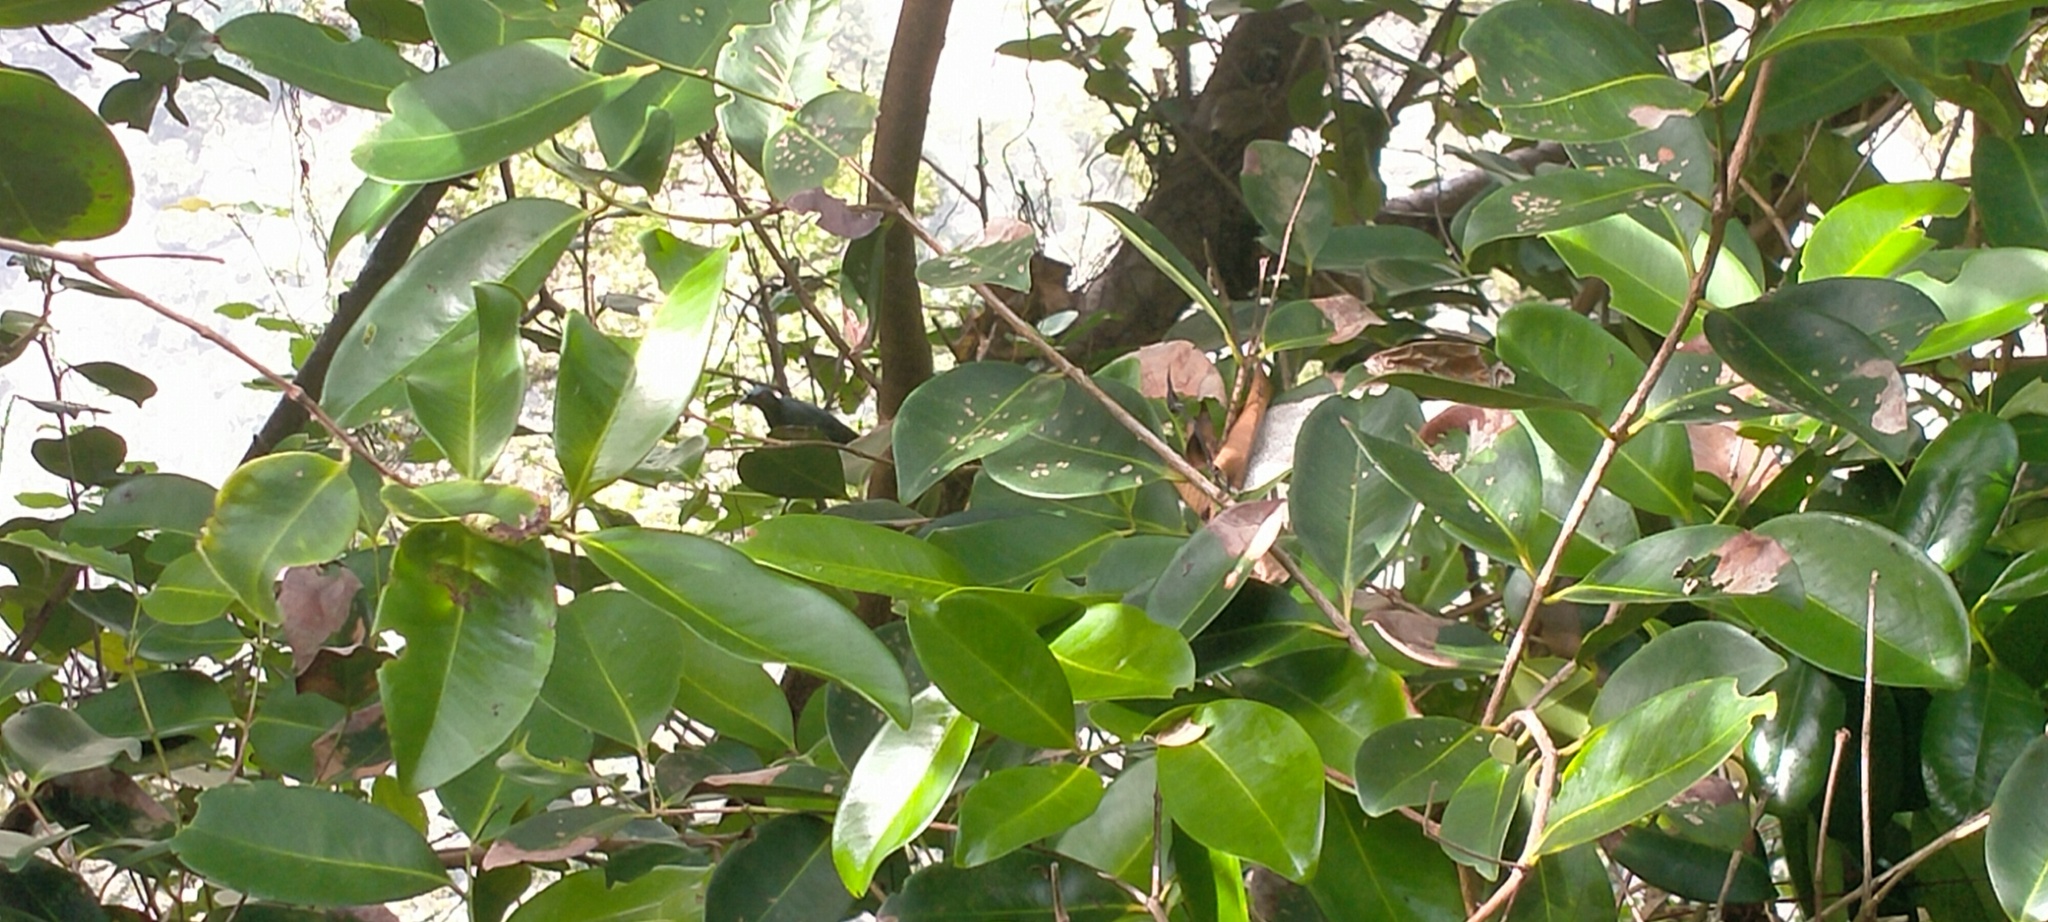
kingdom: Animalia
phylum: Chordata
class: Aves
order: Passeriformes
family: Sturnidae
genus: Aplonis
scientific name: Aplonis panayensis
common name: Asian glossy starling
